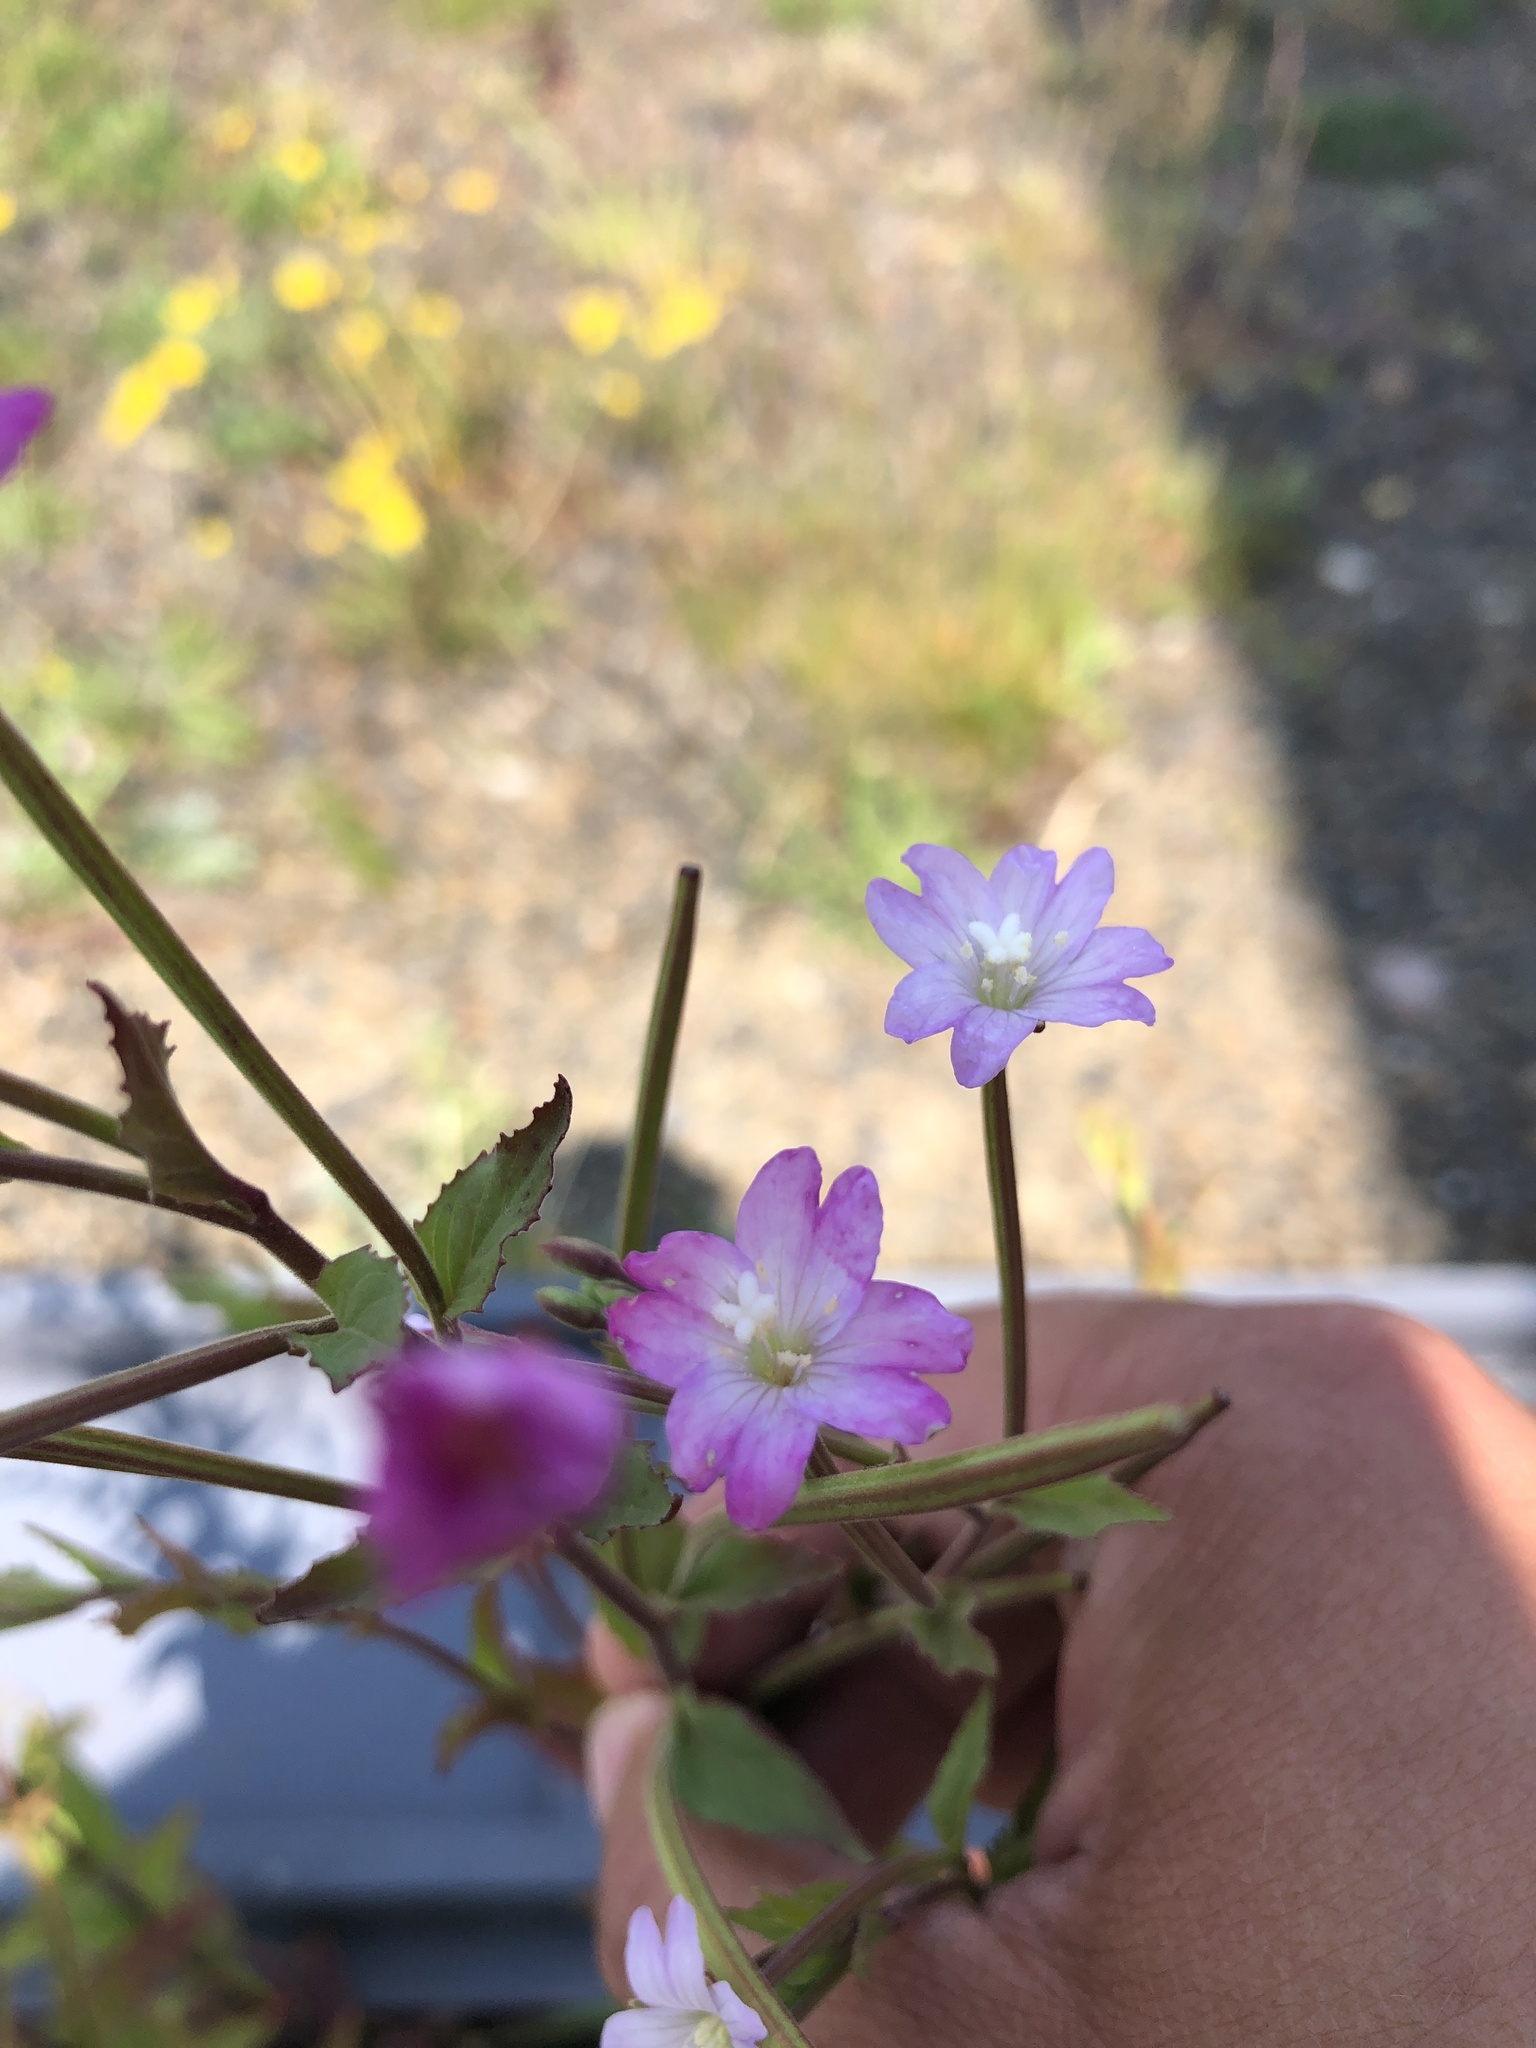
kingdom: Plantae
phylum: Tracheophyta
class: Magnoliopsida
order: Myrtales
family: Onagraceae
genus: Epilobium
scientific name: Epilobium montanum
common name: Broad-leaved willowherb
